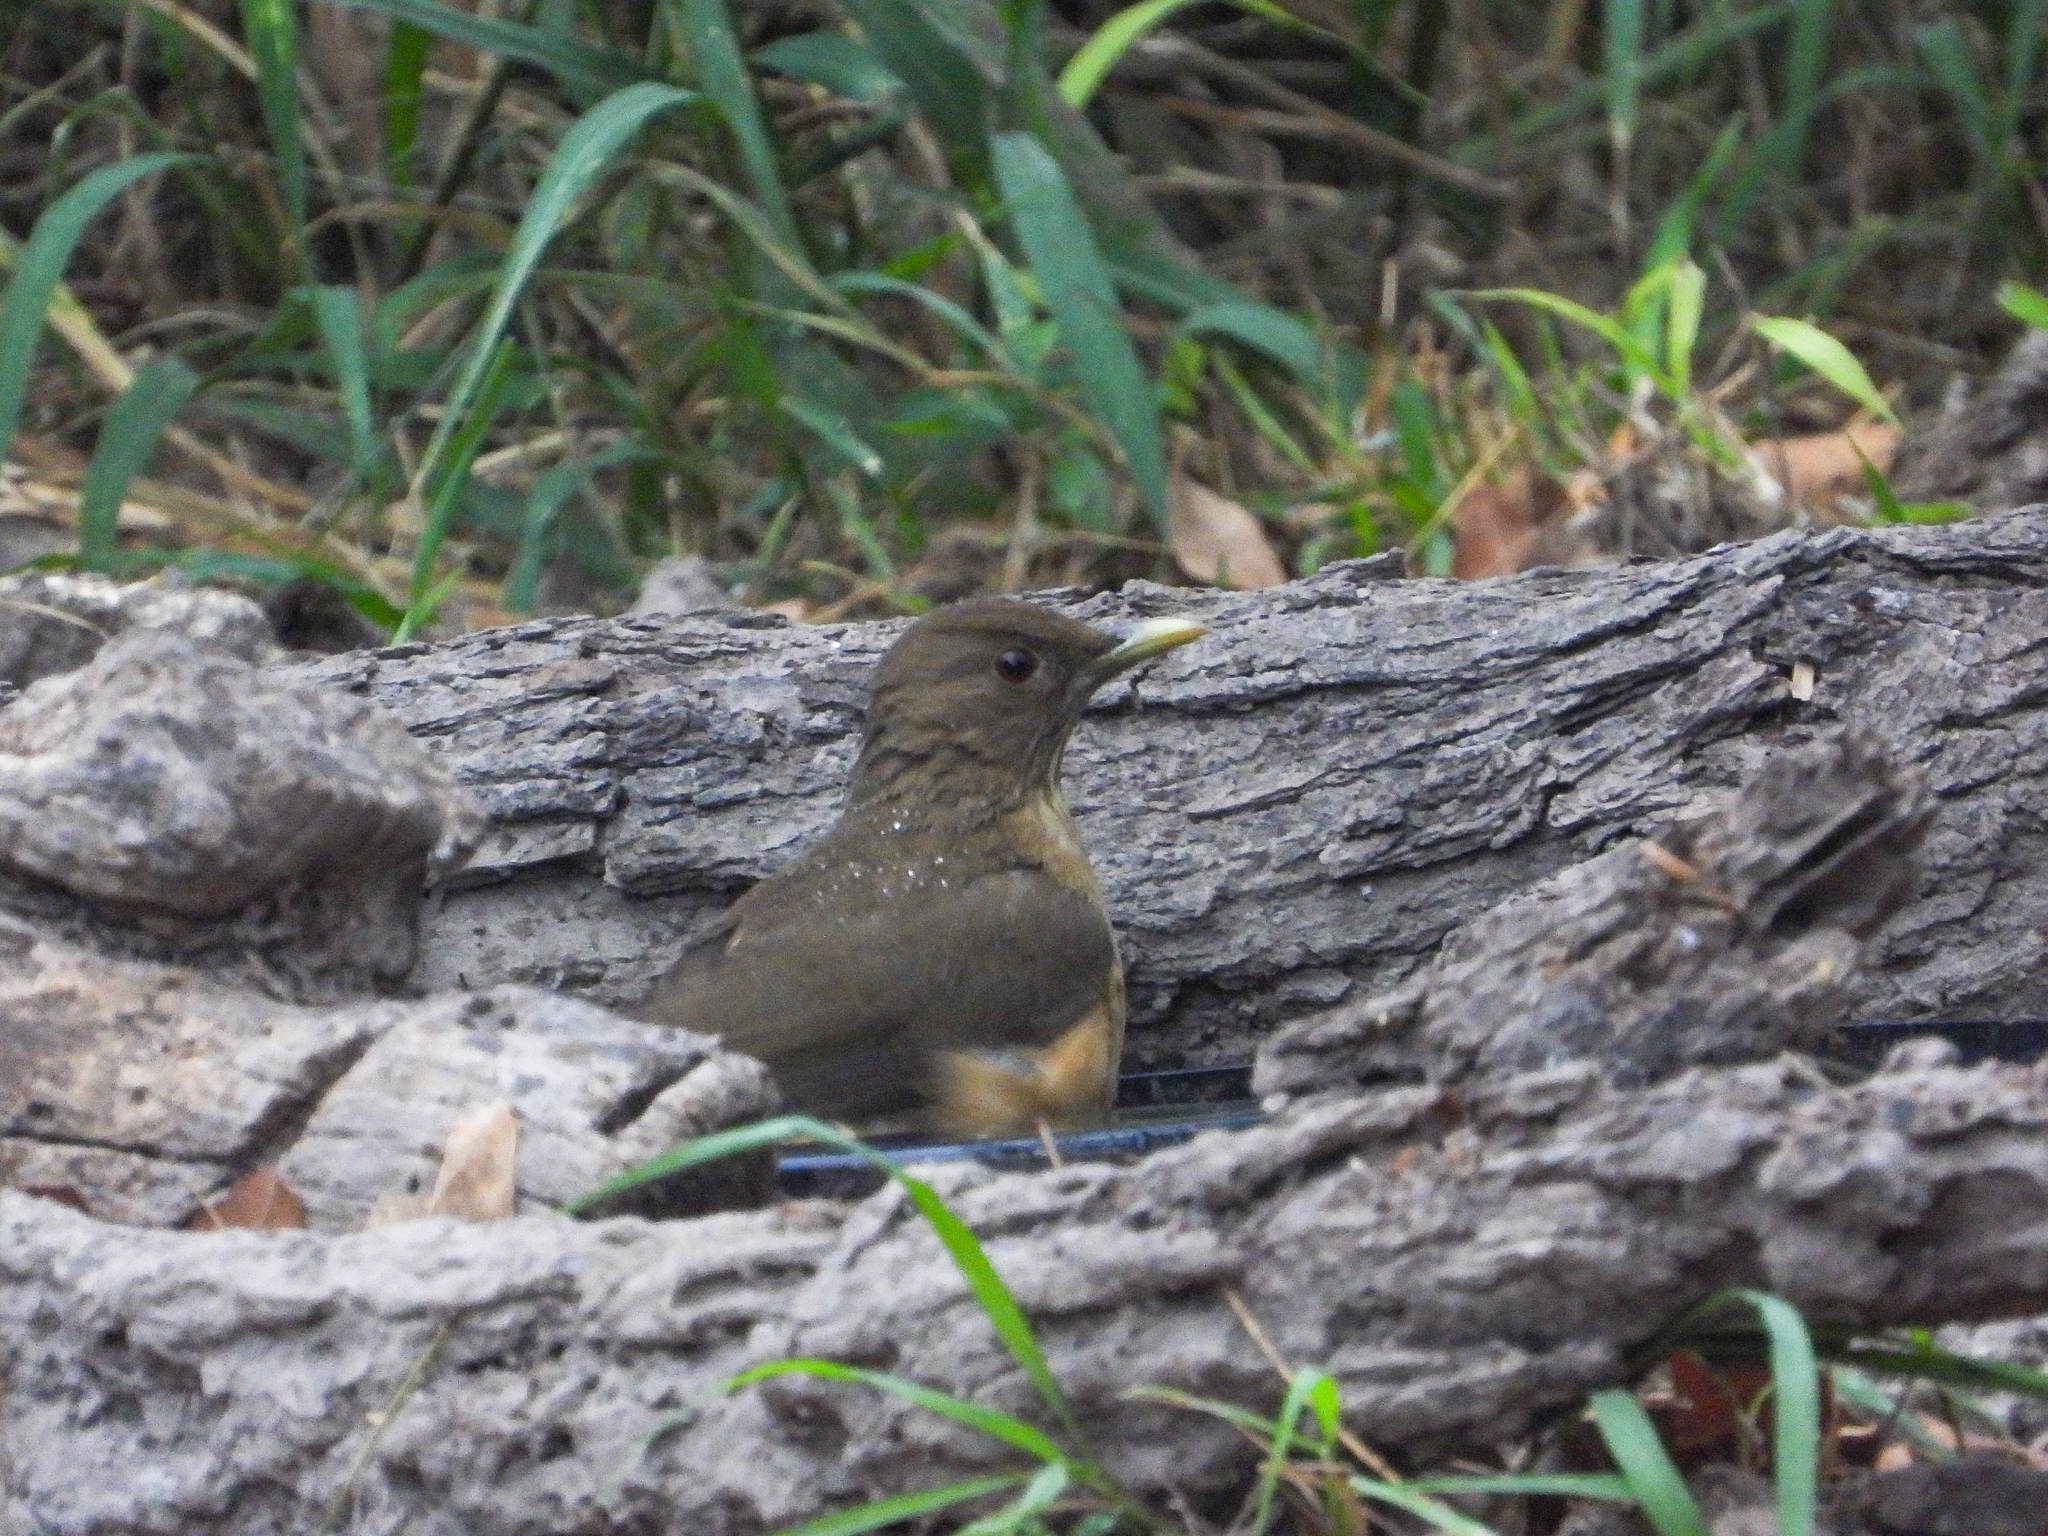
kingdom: Animalia
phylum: Chordata
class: Aves
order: Passeriformes
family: Turdidae
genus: Turdus
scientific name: Turdus grayi
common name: Clay-colored thrush
